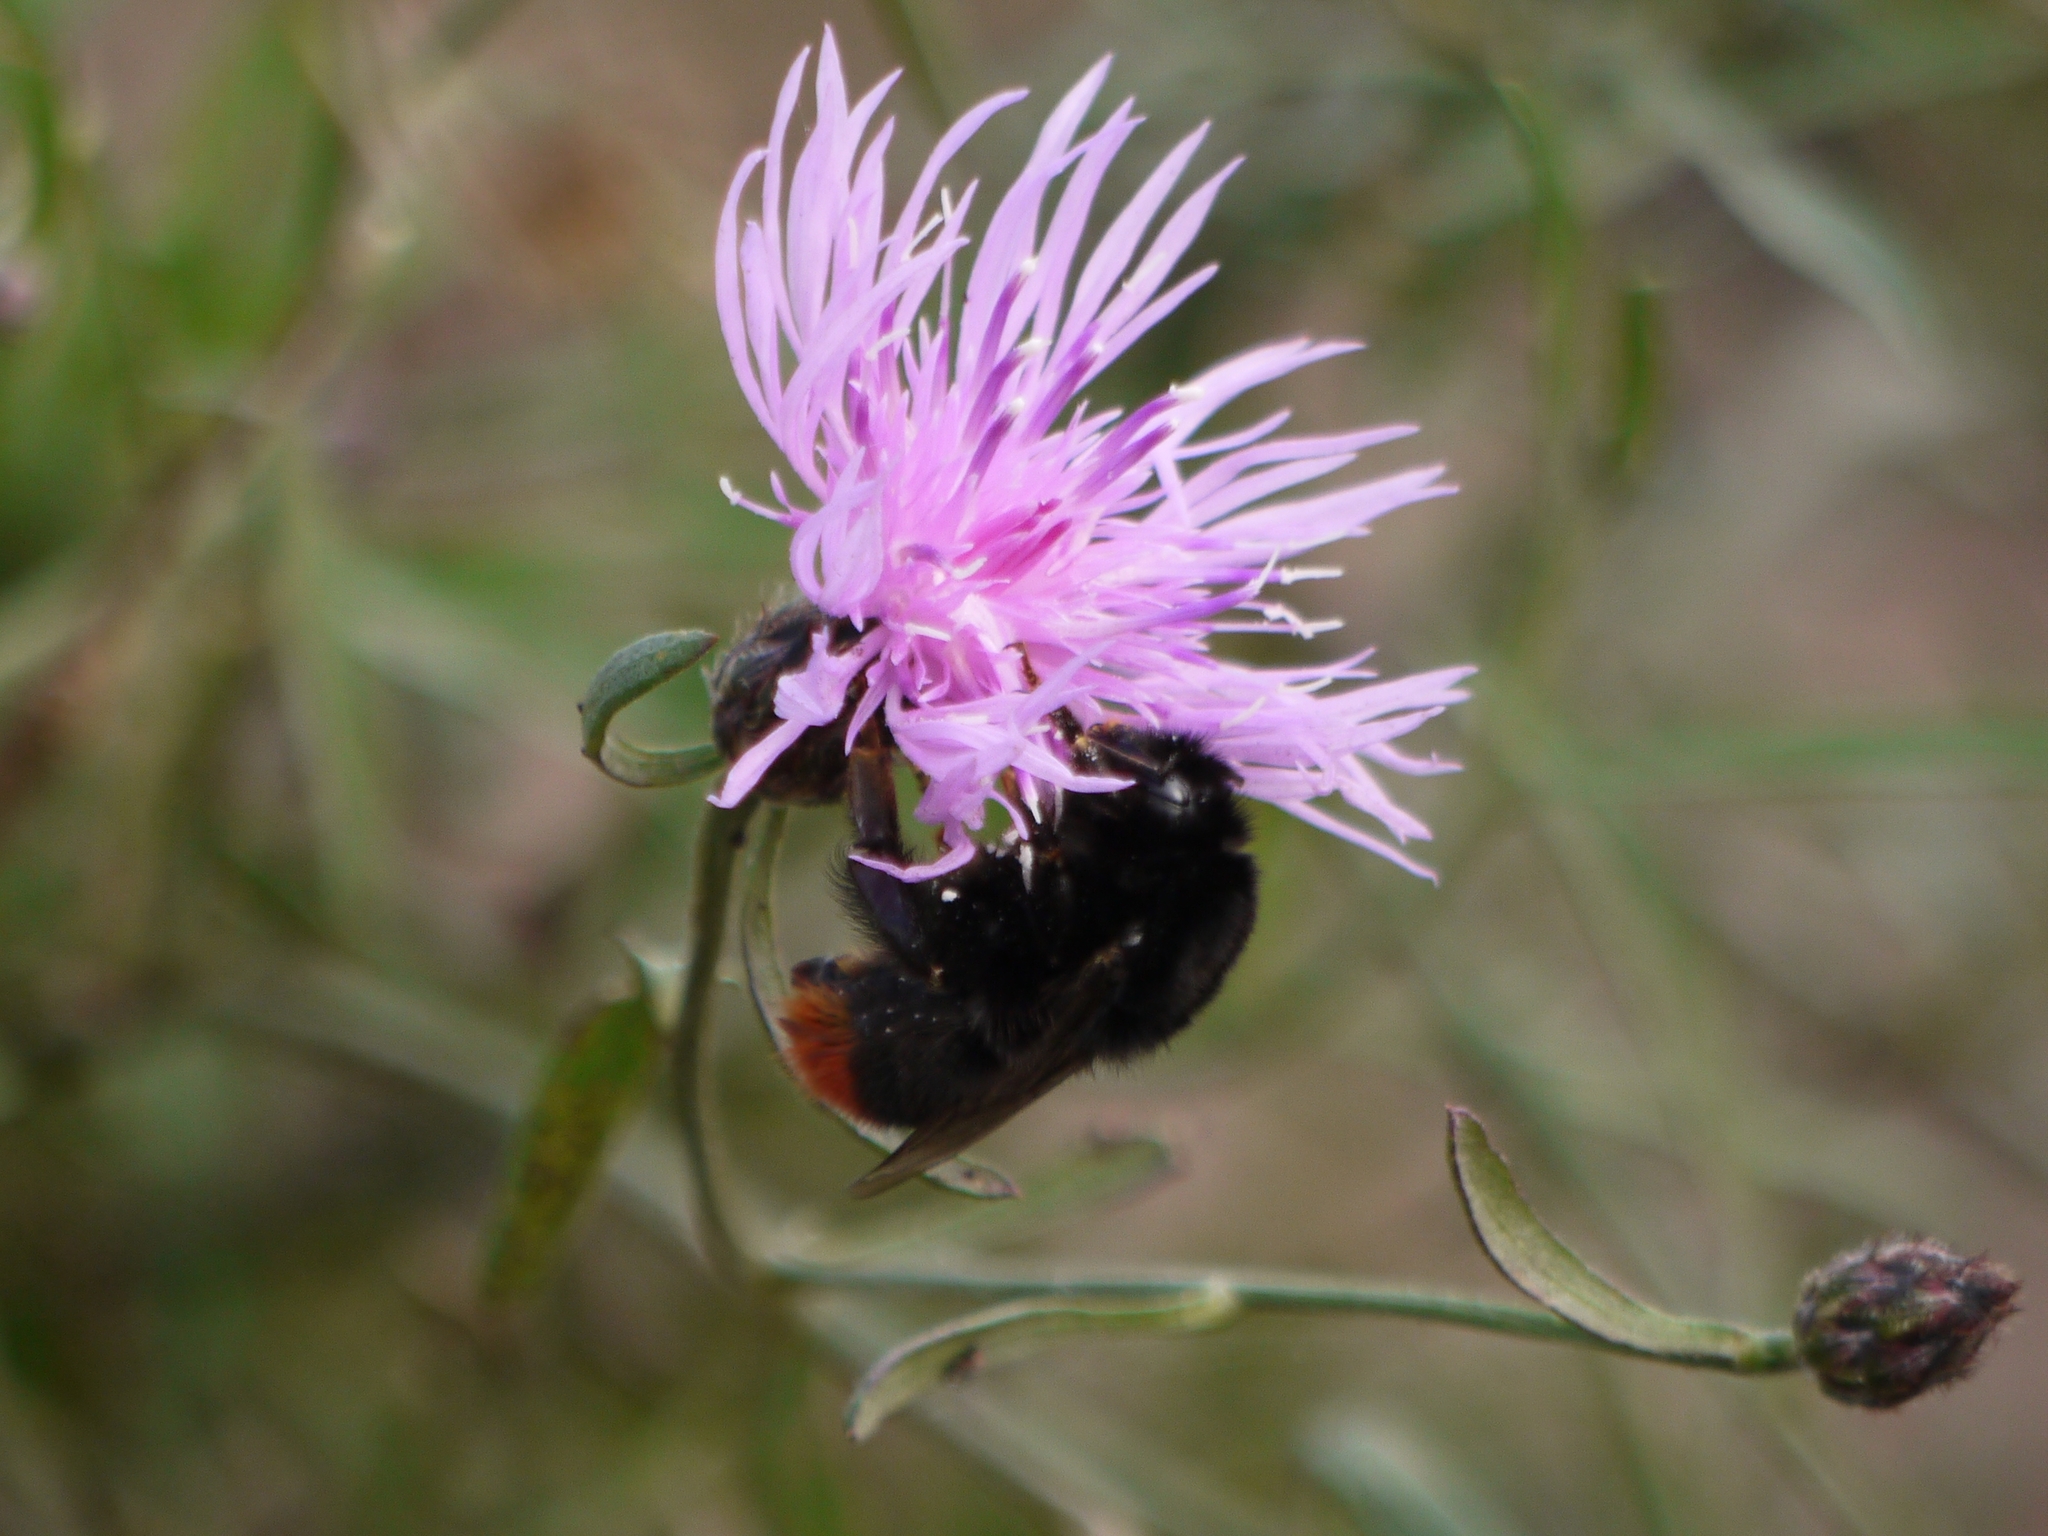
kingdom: Animalia
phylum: Arthropoda
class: Insecta
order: Hymenoptera
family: Apidae
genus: Bombus
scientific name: Bombus lapidarius
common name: Large red-tailed humble-bee
